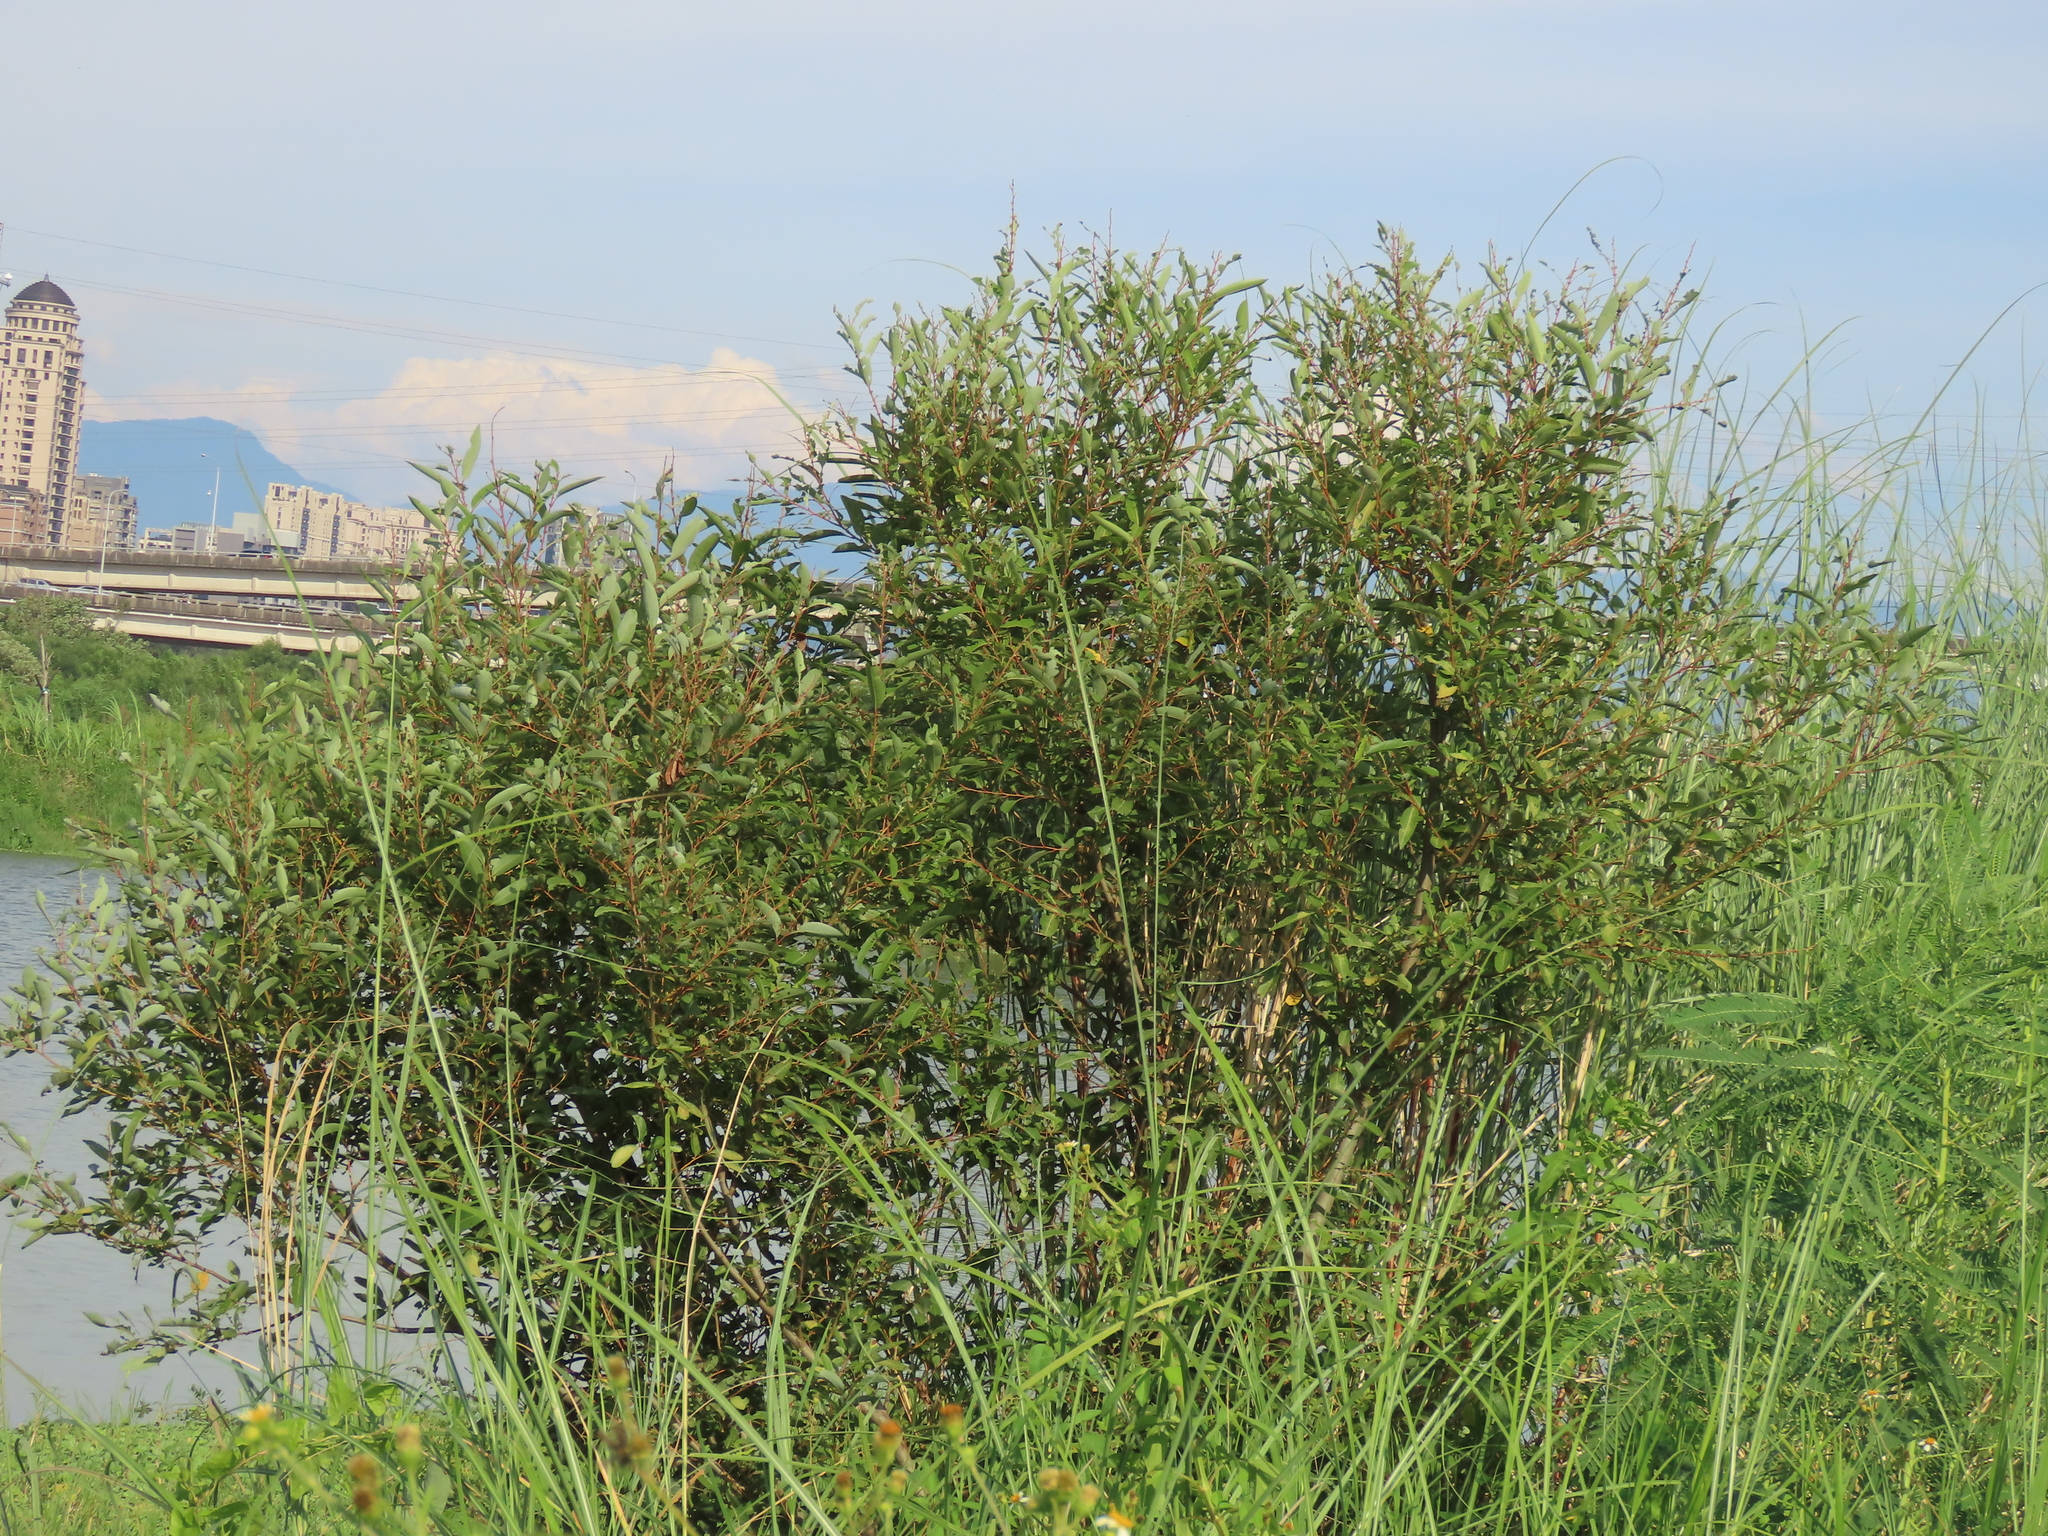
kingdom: Plantae
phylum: Tracheophyta
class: Magnoliopsida
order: Malpighiales
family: Salicaceae
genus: Salix
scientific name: Salix mesnyi
